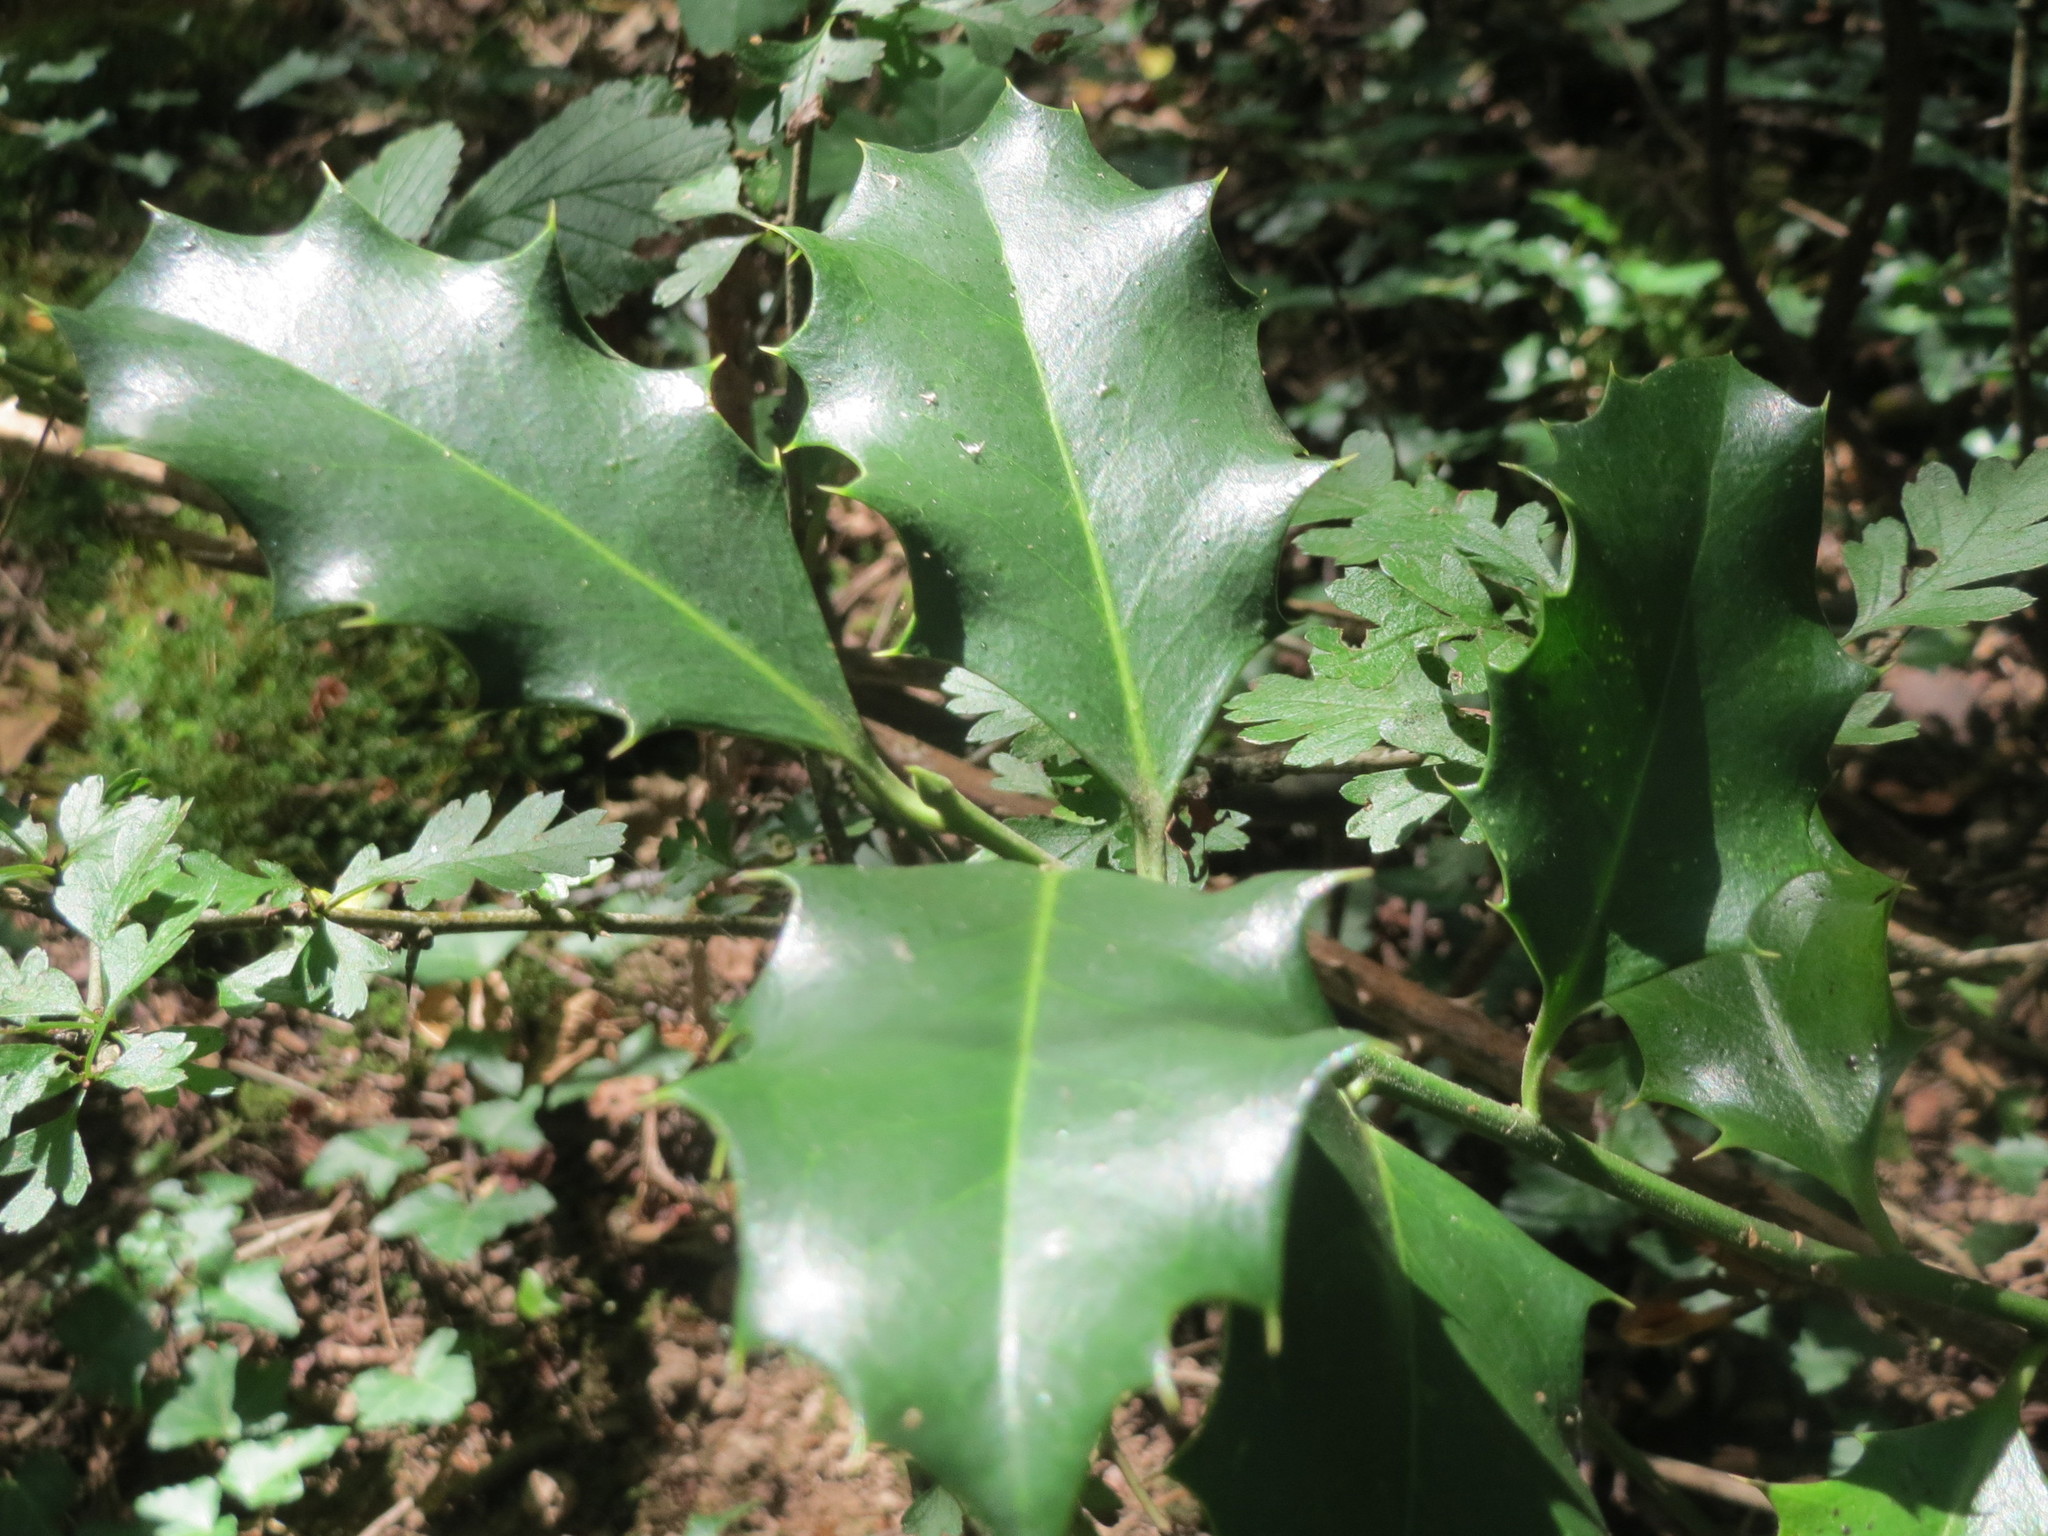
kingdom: Plantae
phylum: Tracheophyta
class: Magnoliopsida
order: Aquifoliales
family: Aquifoliaceae
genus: Ilex
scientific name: Ilex aquifolium
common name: English holly
